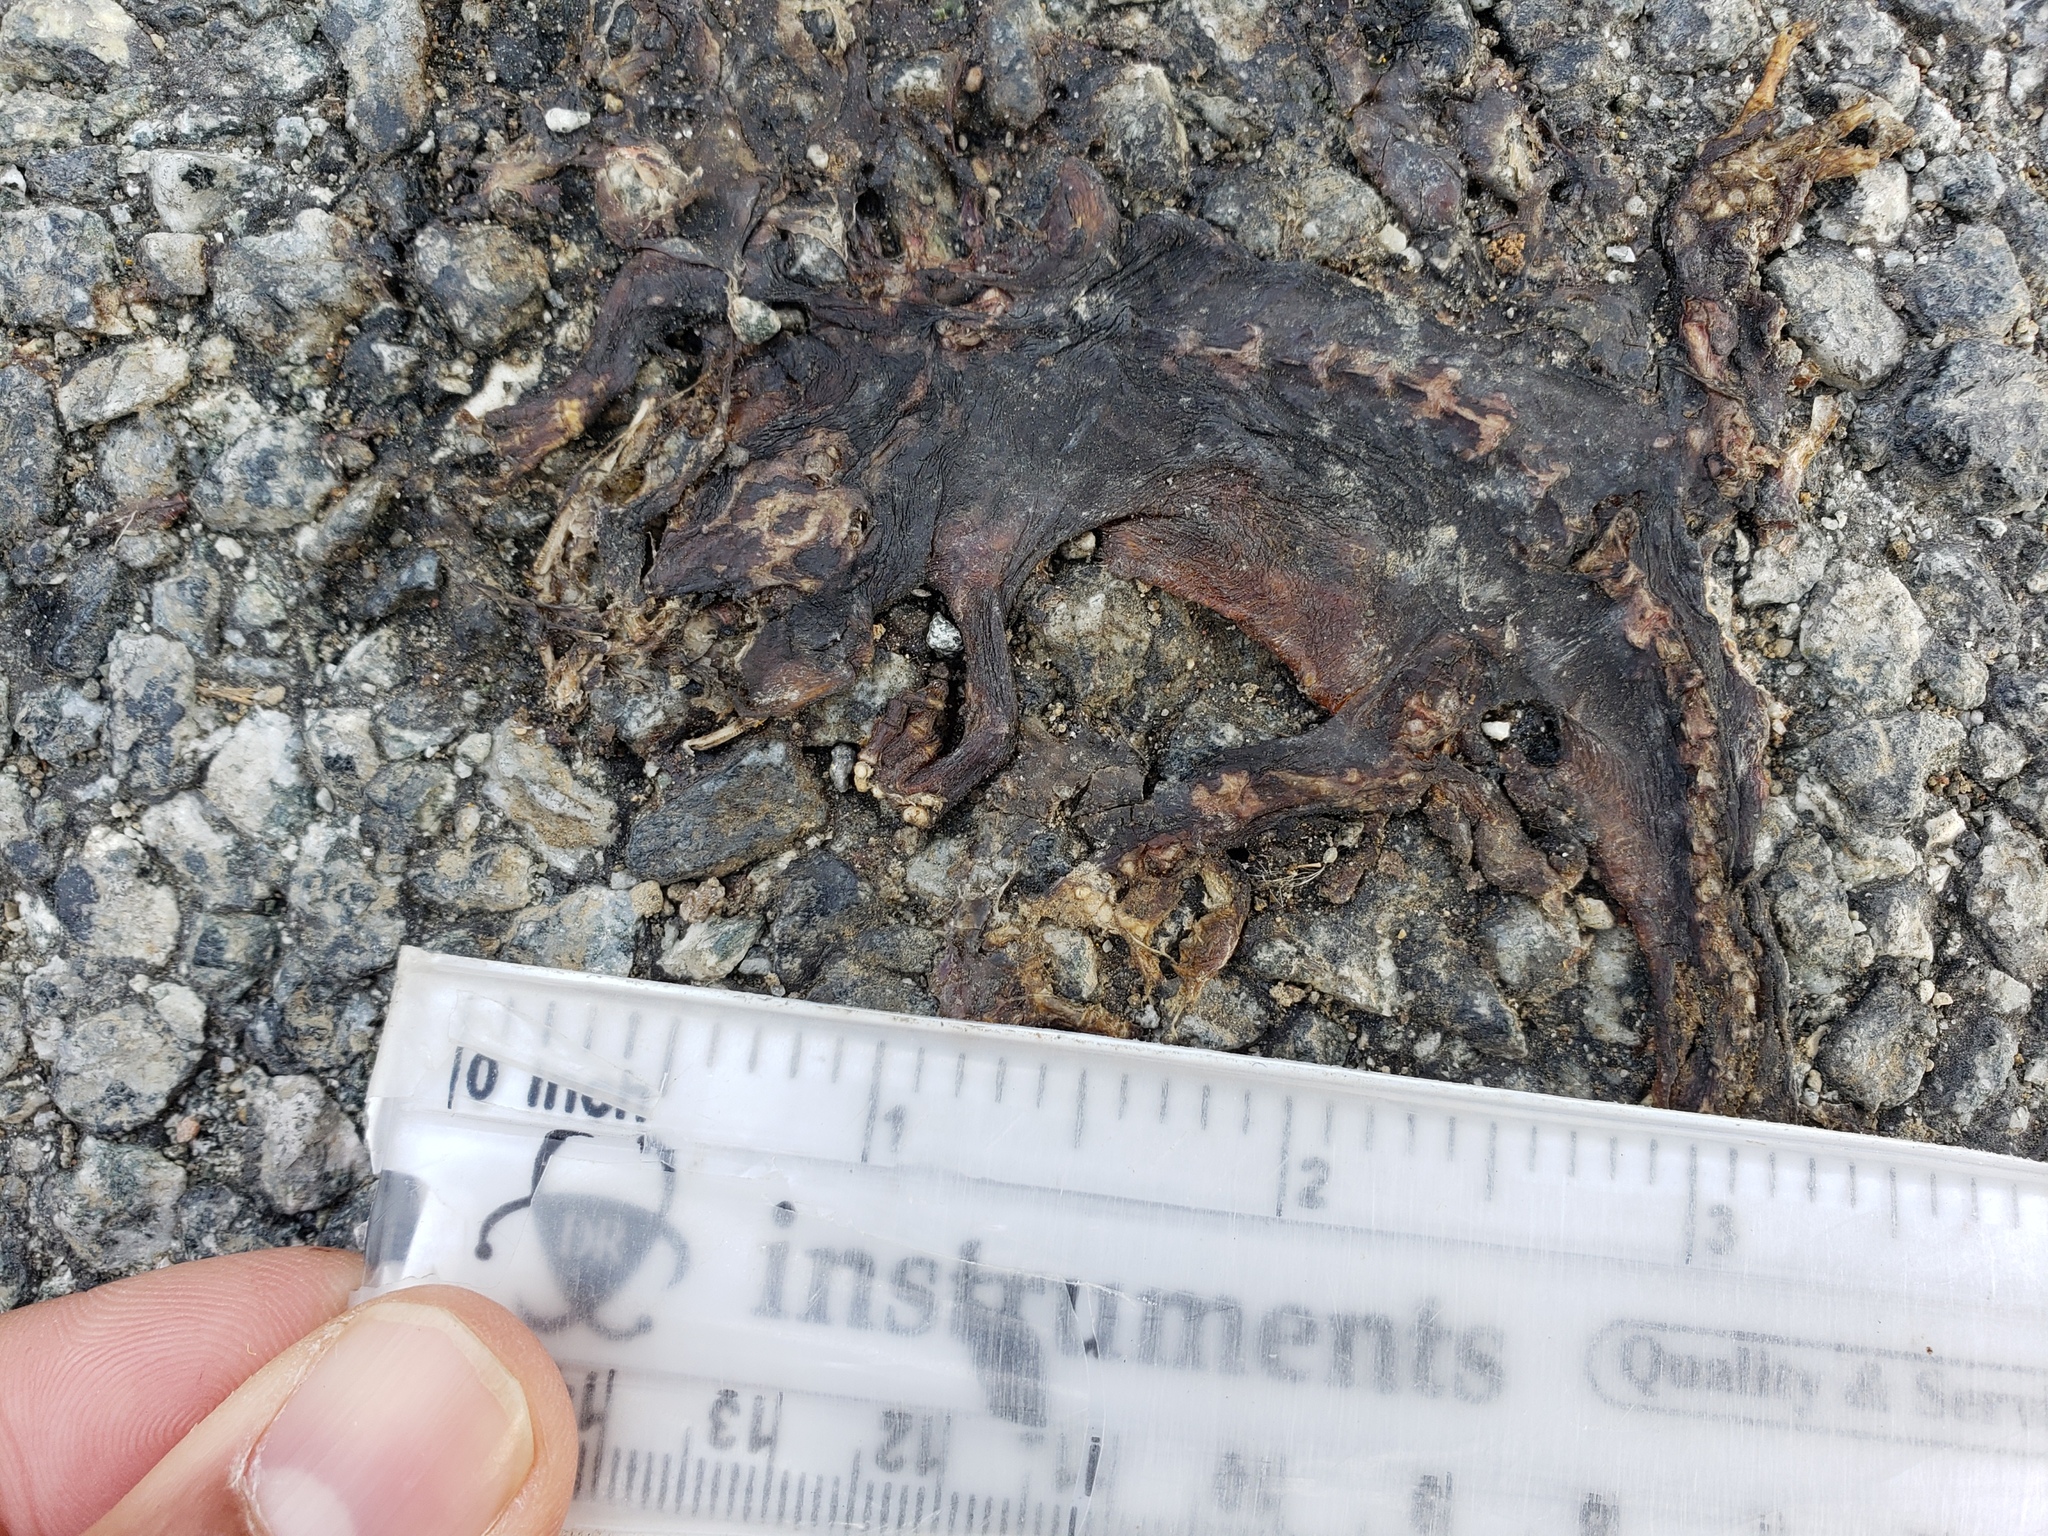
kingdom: Animalia
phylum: Chordata
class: Amphibia
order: Caudata
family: Salamandridae
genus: Taricha
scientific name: Taricha
